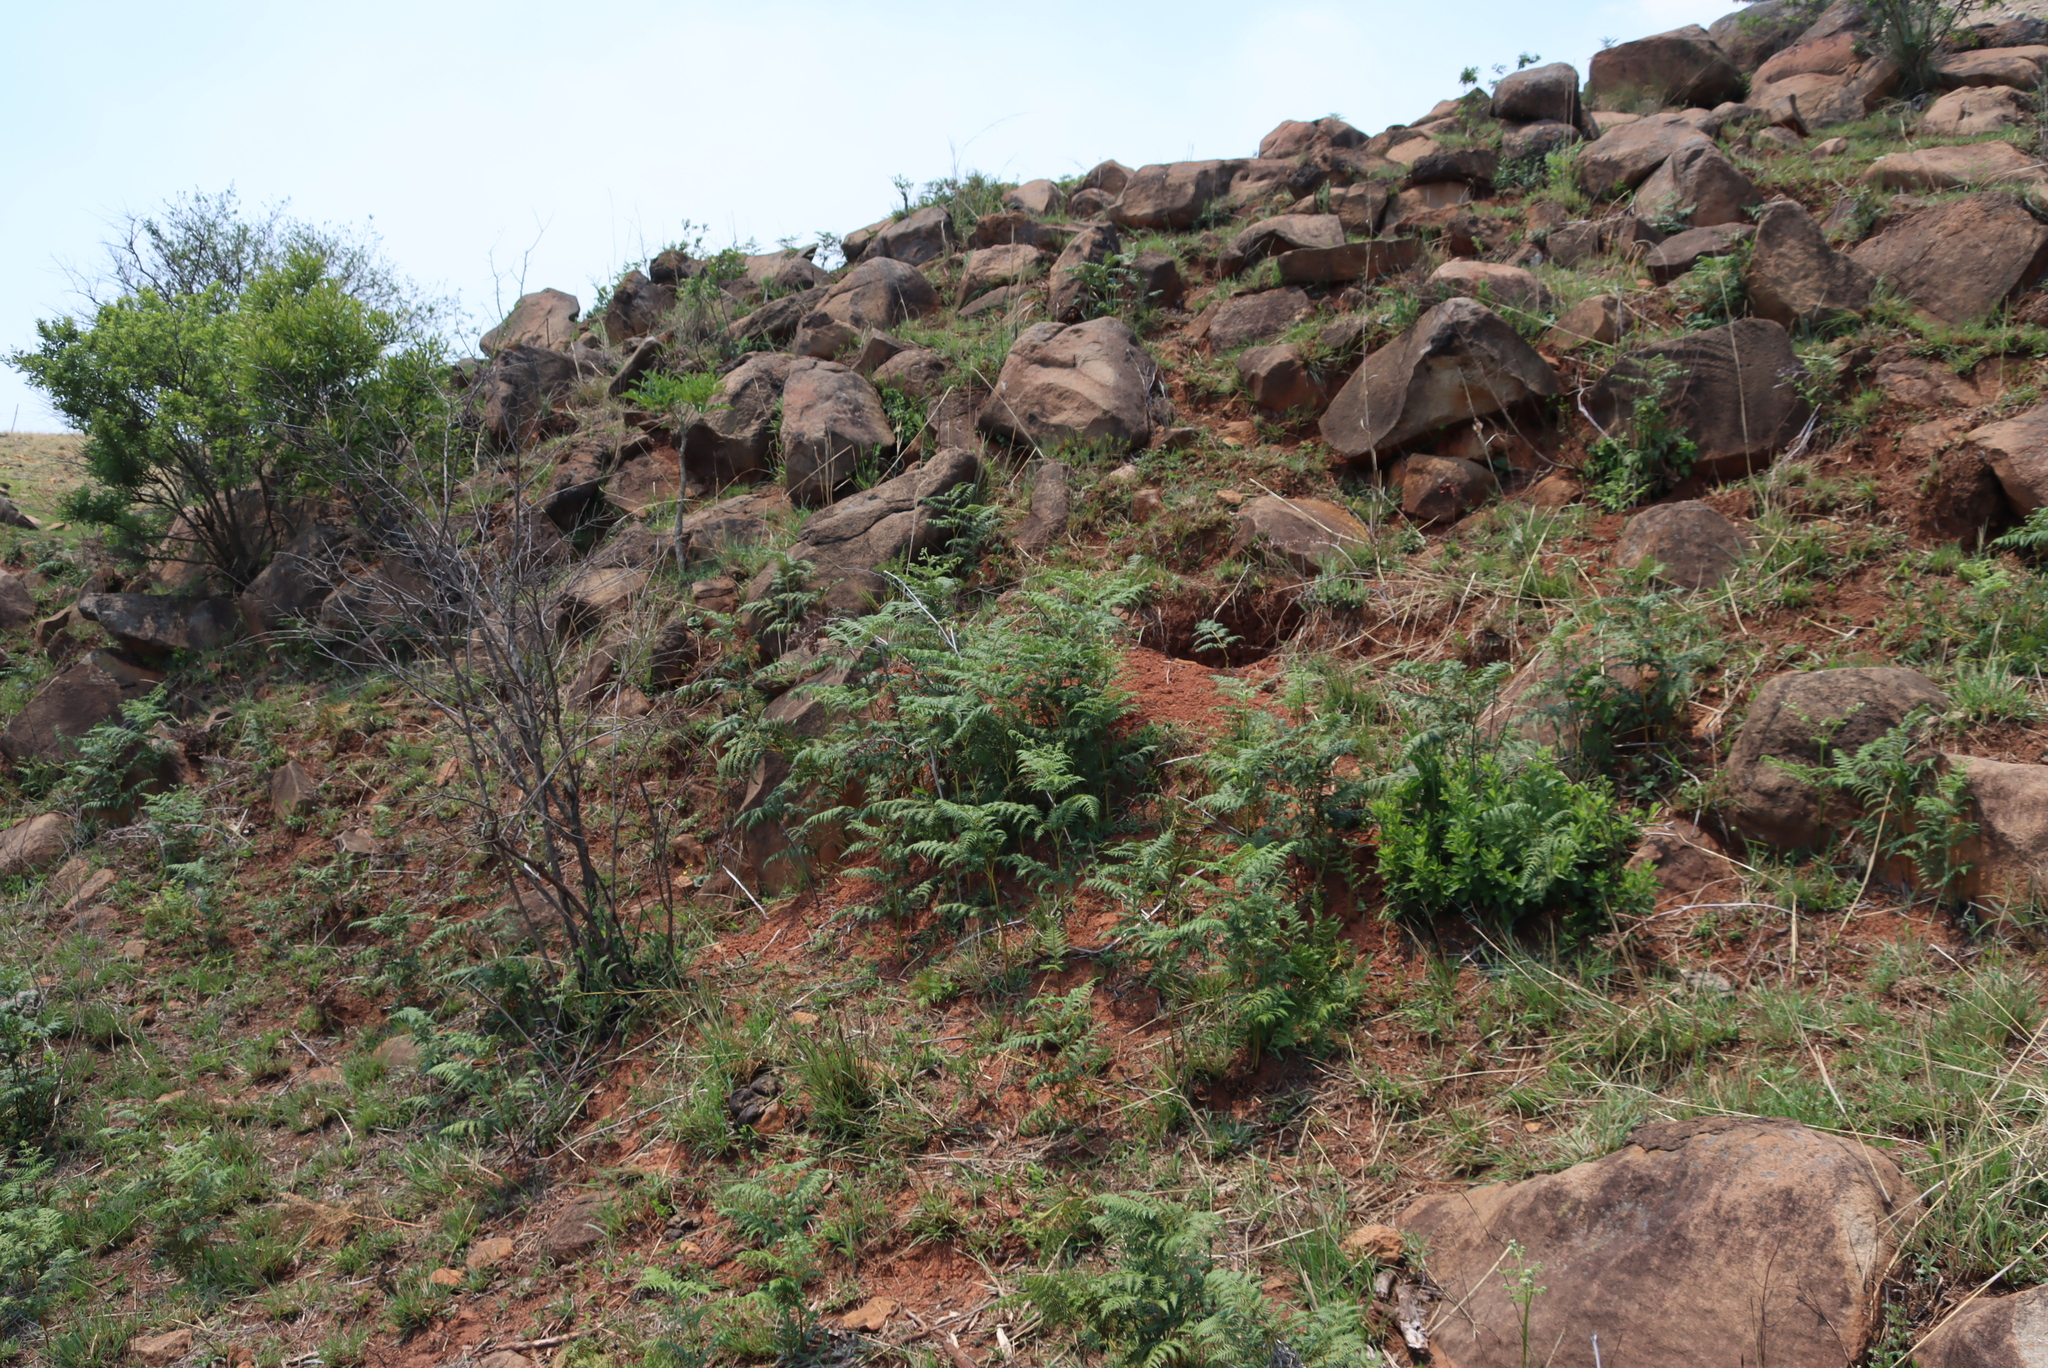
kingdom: Plantae
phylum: Tracheophyta
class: Polypodiopsida
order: Polypodiales
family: Dennstaedtiaceae
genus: Pteridium
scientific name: Pteridium aquilinum
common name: Bracken
